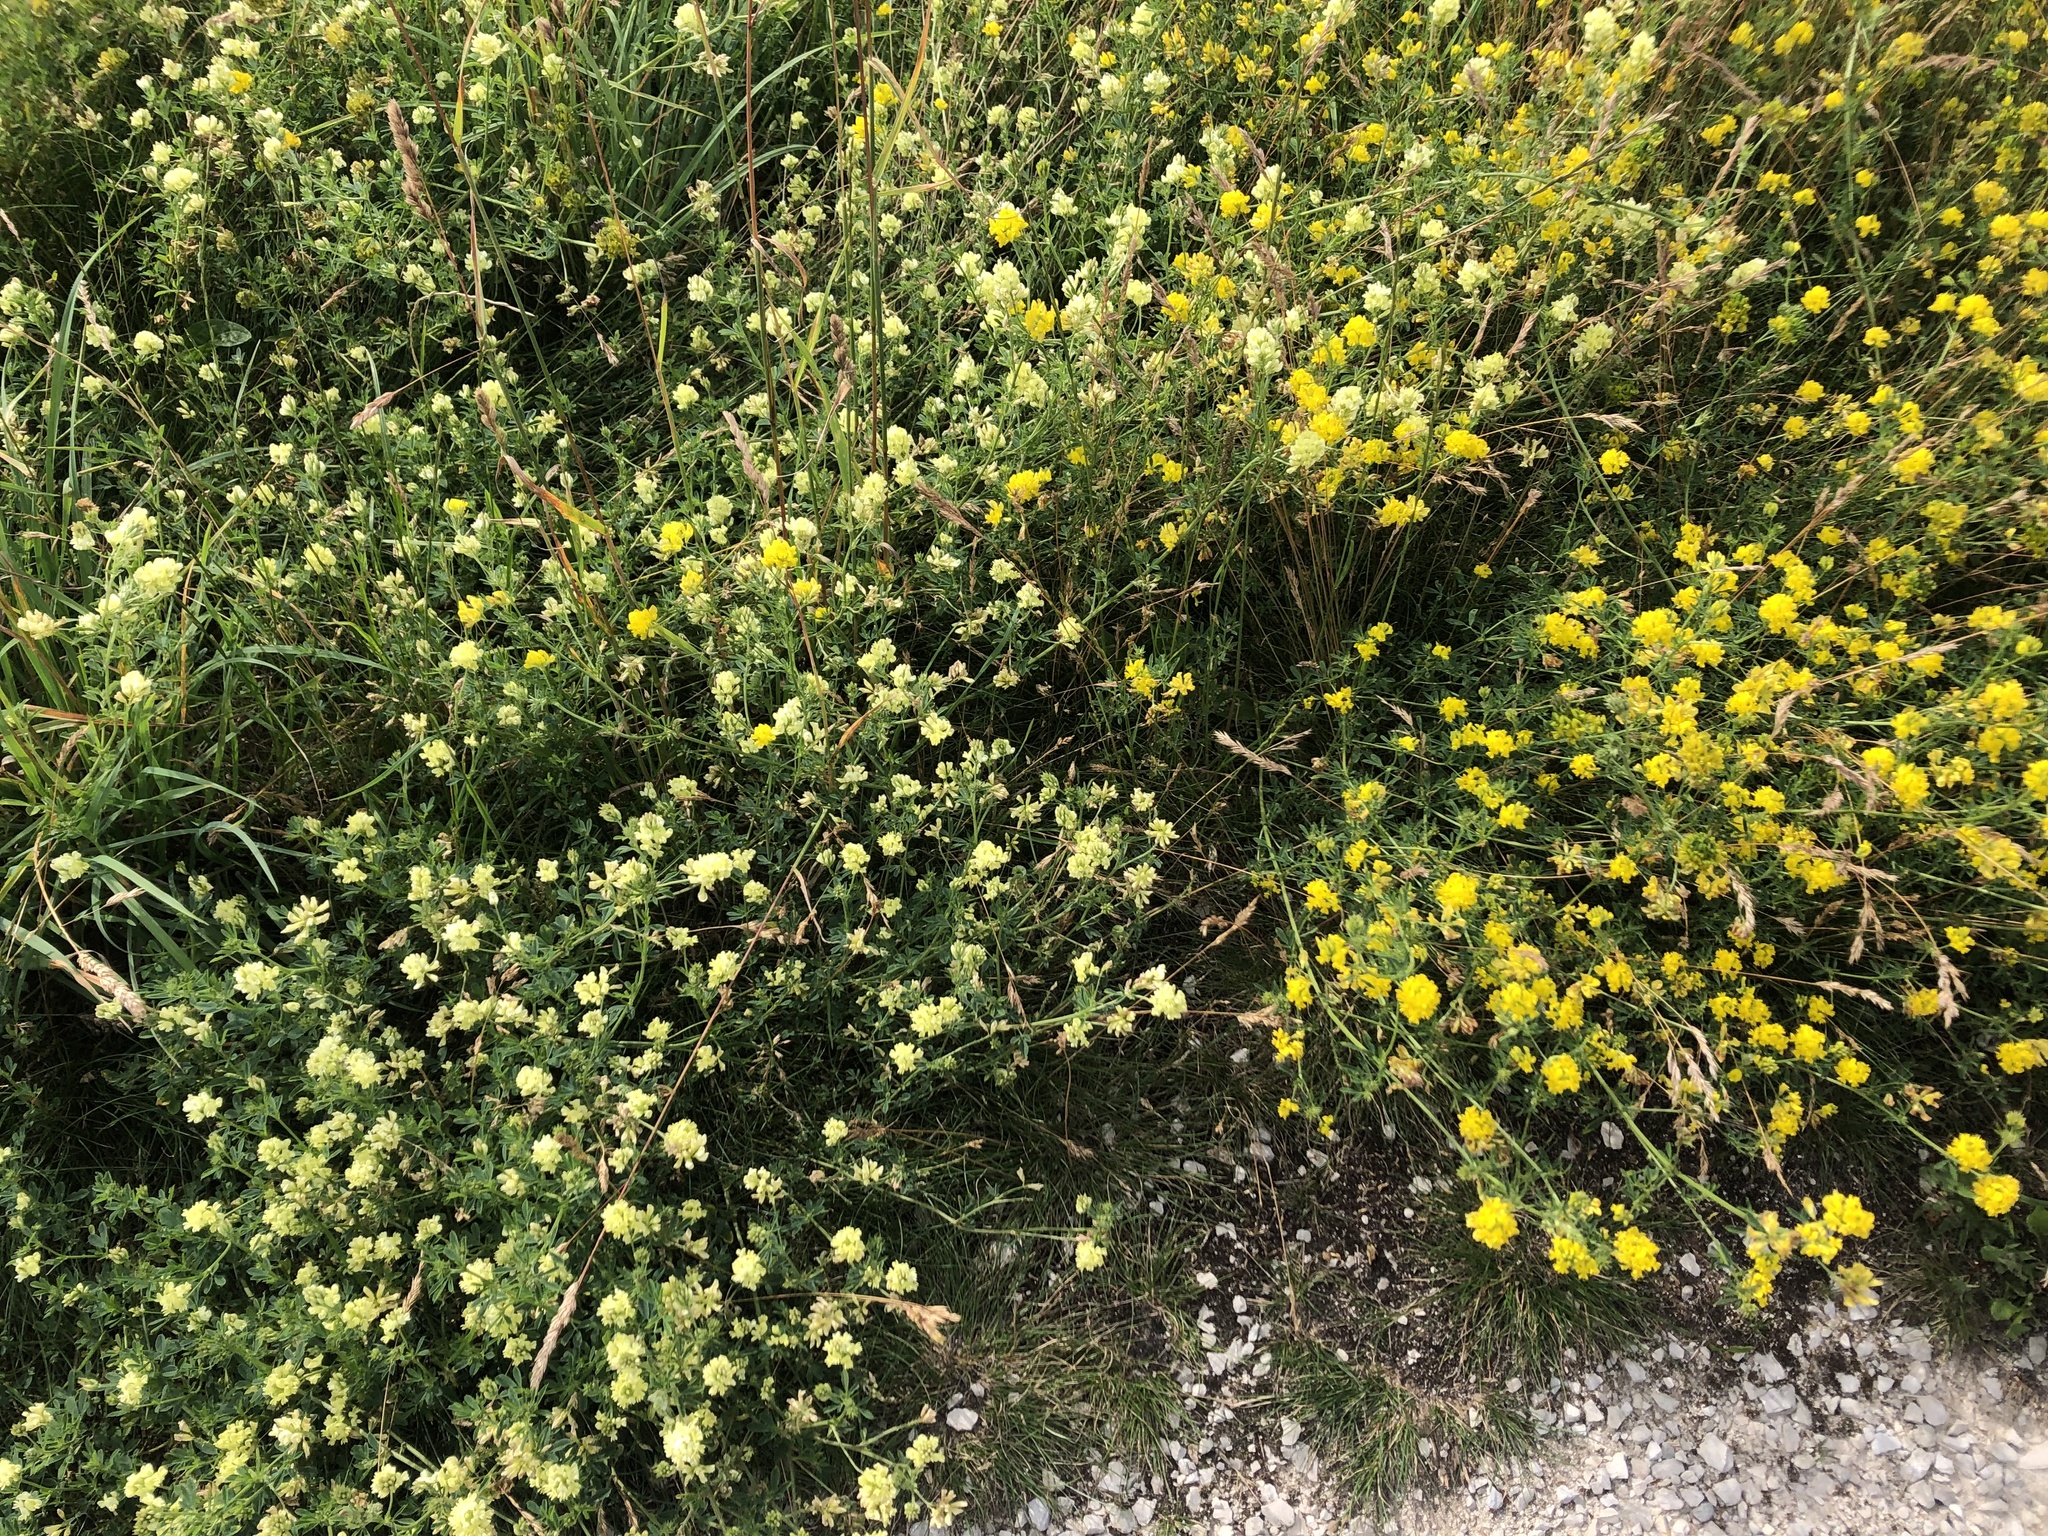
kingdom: Plantae
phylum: Tracheophyta
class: Magnoliopsida
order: Fabales
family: Fabaceae
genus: Medicago
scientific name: Medicago falcata
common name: Sickle medick
